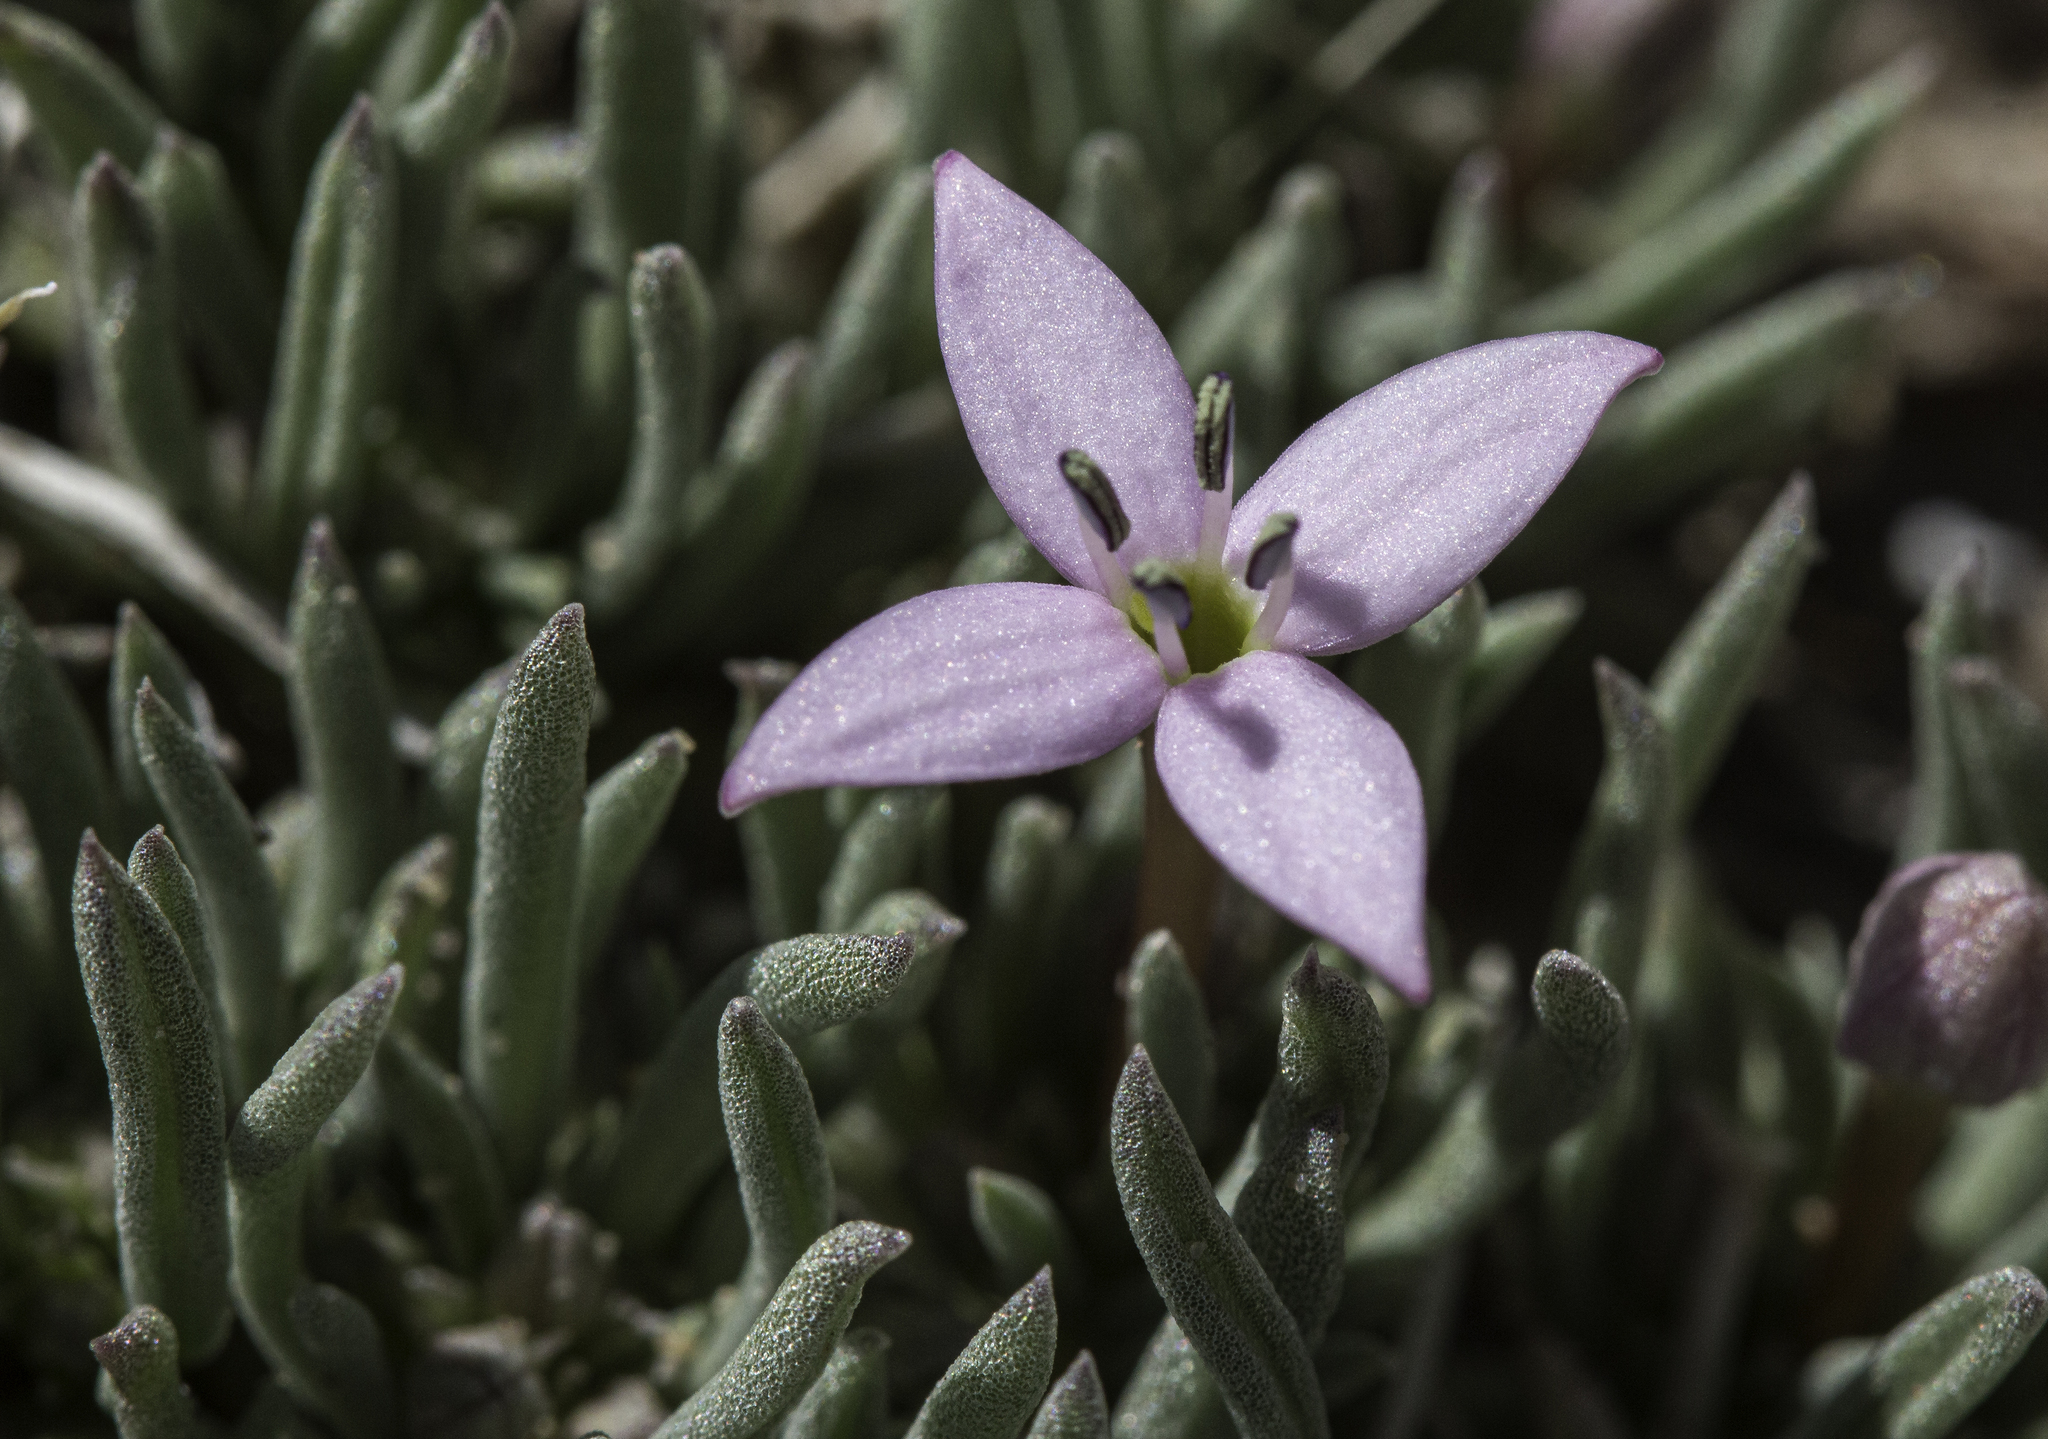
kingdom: Plantae
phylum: Tracheophyta
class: Magnoliopsida
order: Gentianales
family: Rubiaceae
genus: Houstonia
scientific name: Houstonia rubra
